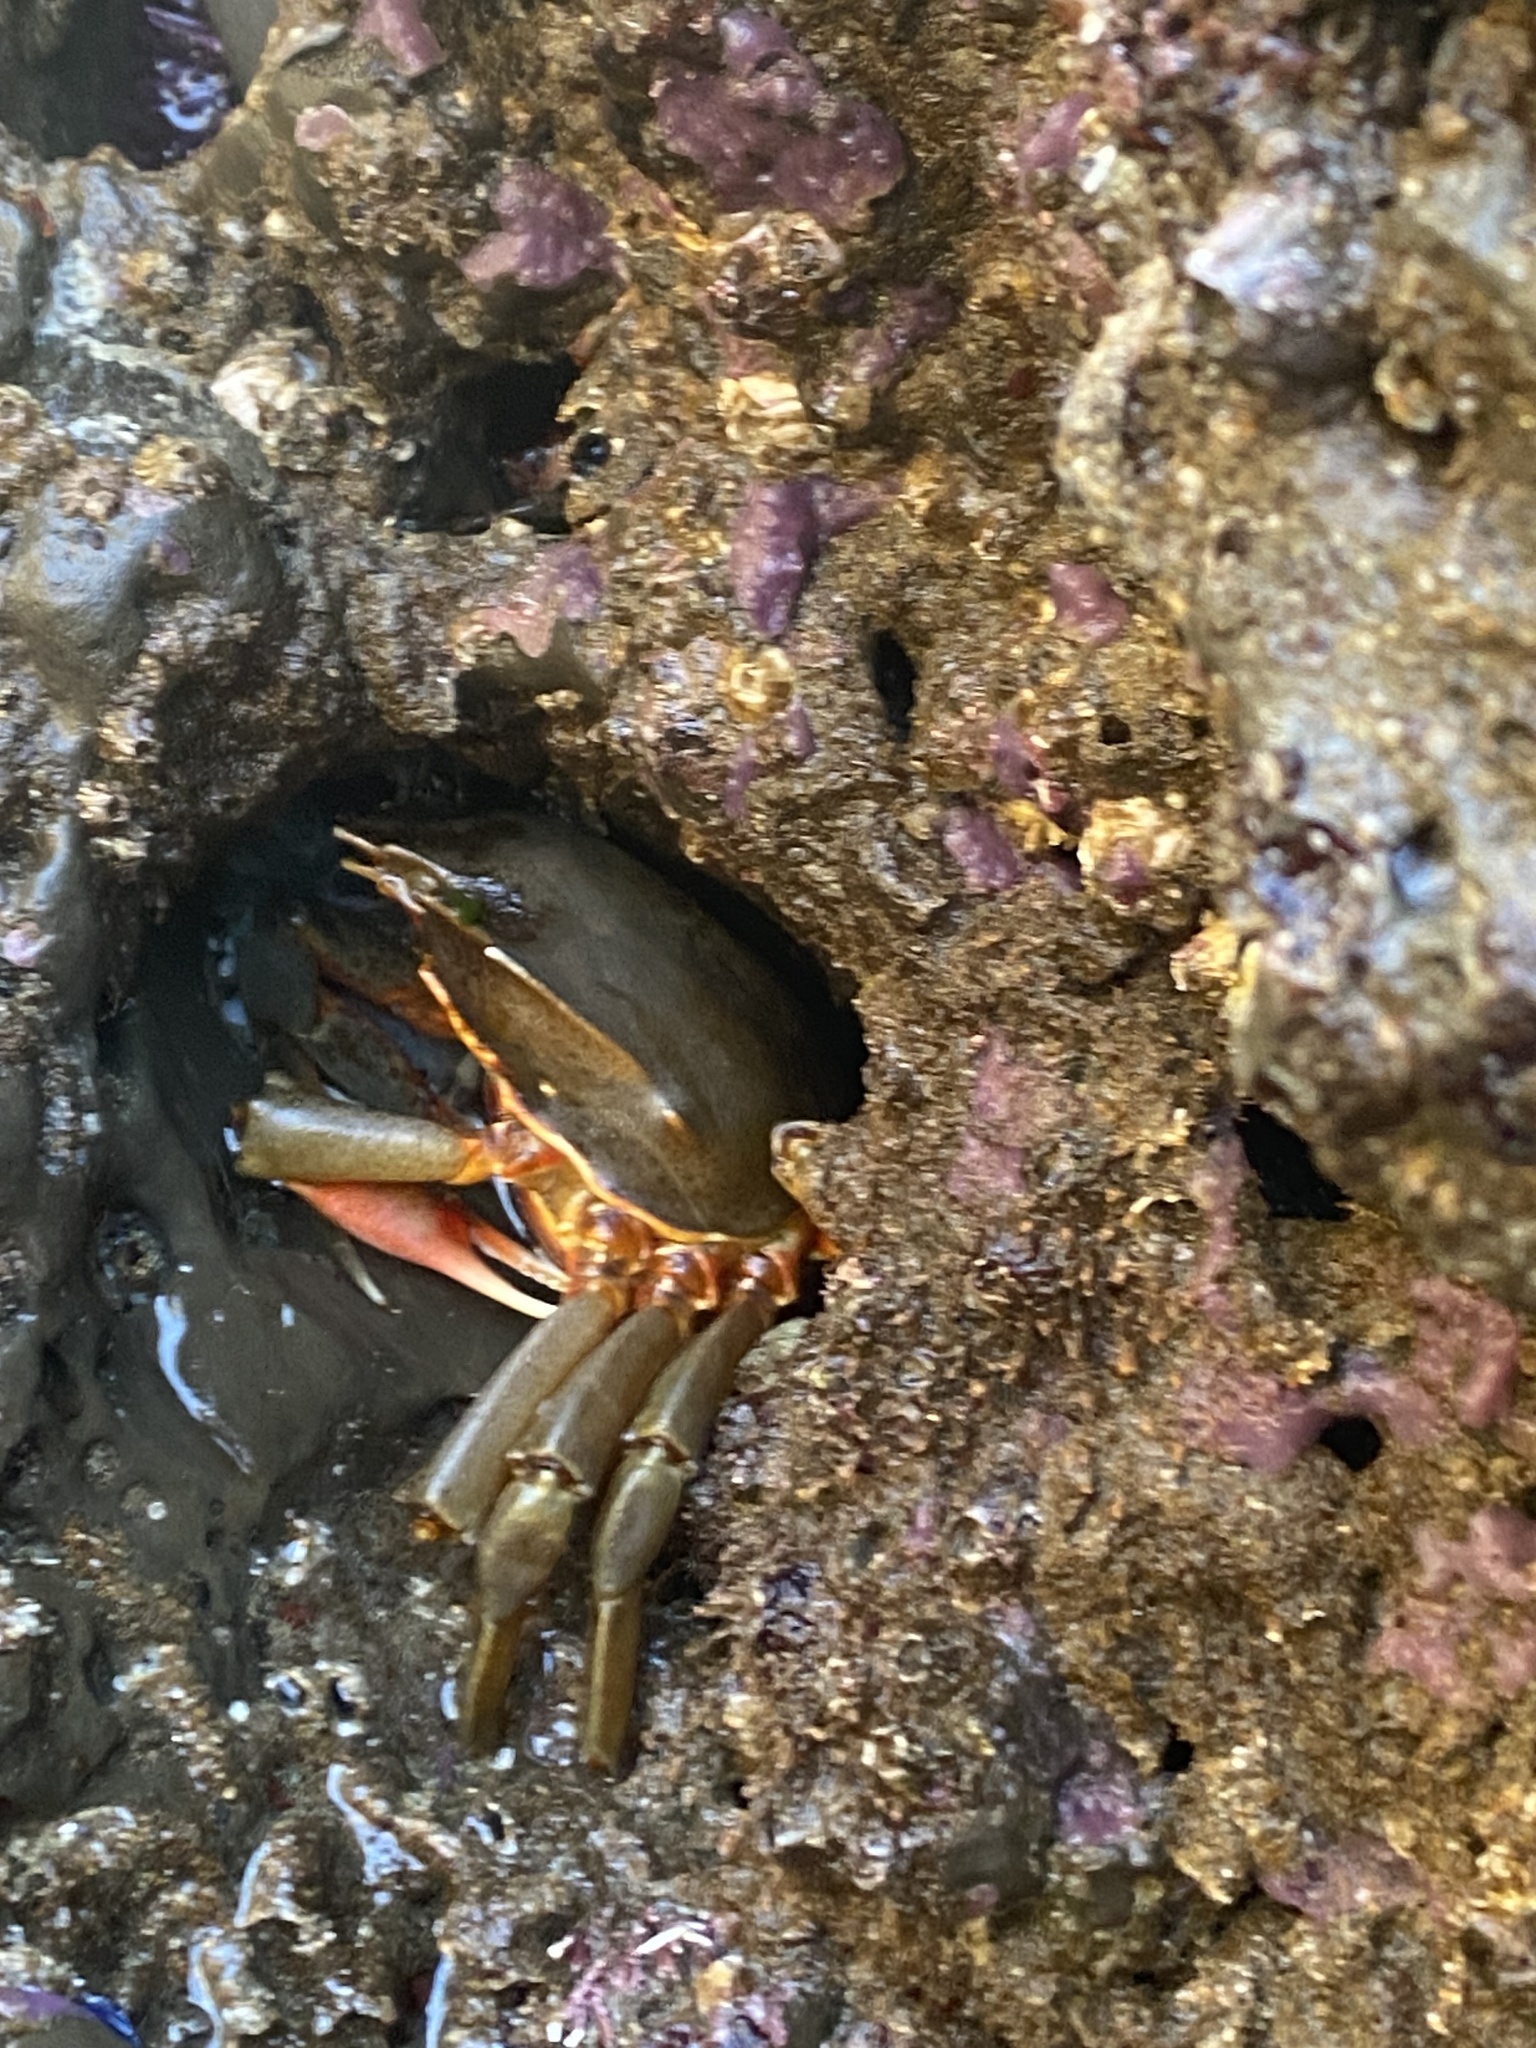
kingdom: Animalia
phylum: Arthropoda
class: Malacostraca
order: Decapoda
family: Epialtidae
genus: Pugettia
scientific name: Pugettia producta
